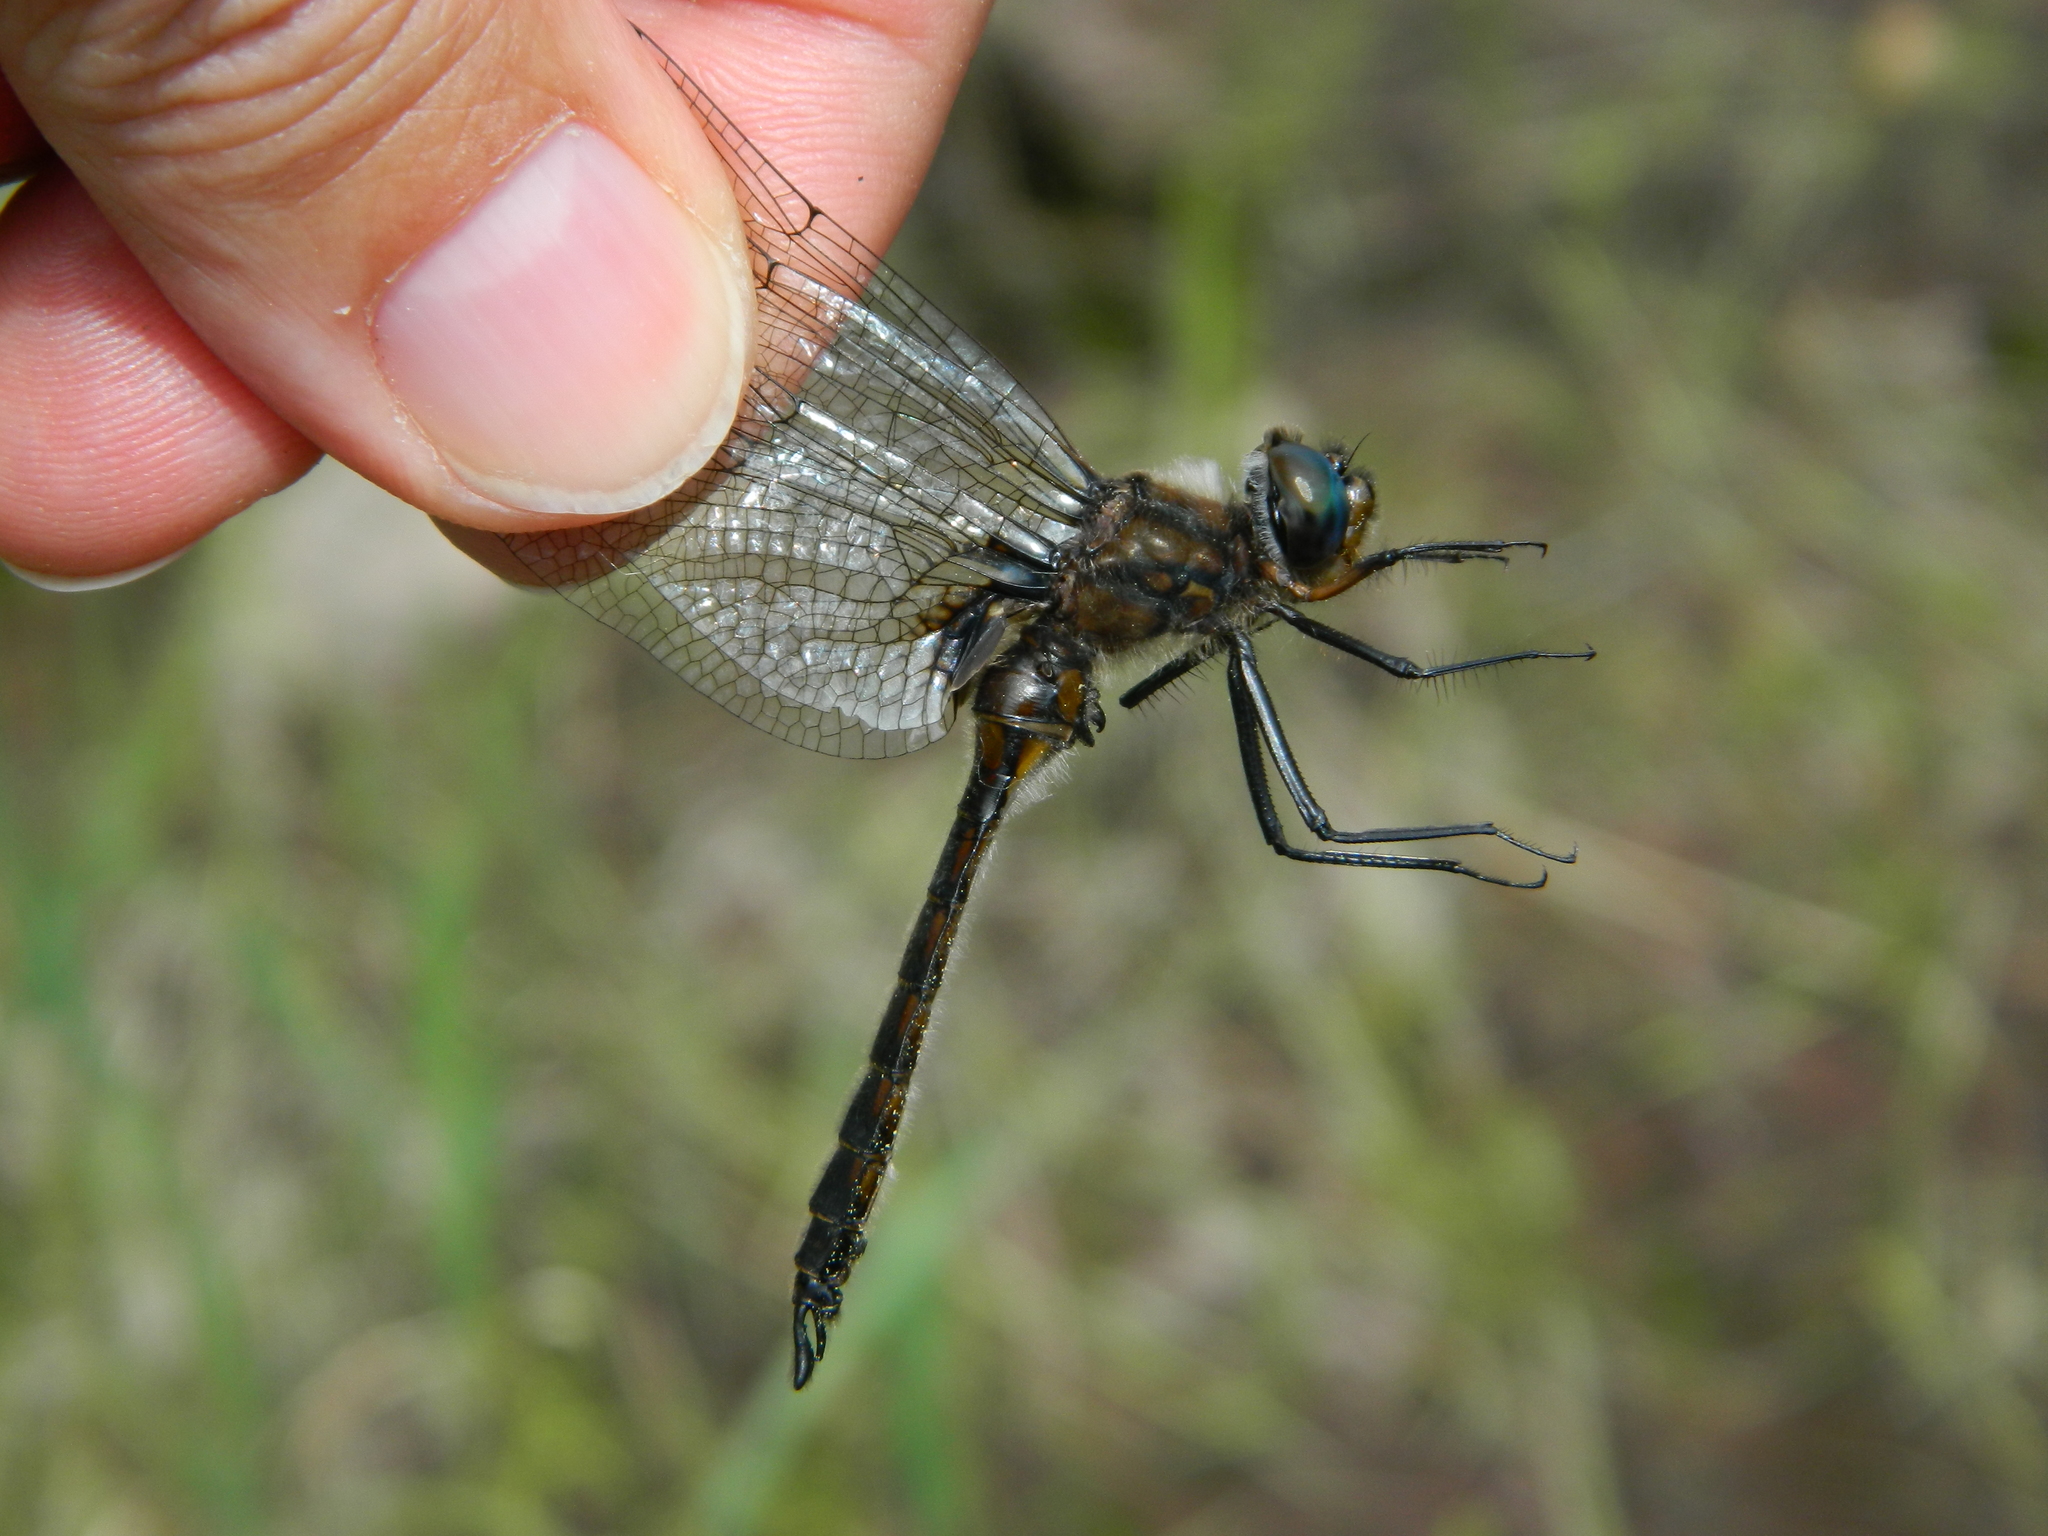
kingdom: Animalia
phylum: Arthropoda
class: Insecta
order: Odonata
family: Corduliidae
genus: Epitheca
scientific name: Epitheca spinigera
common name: Spiny baskettail
